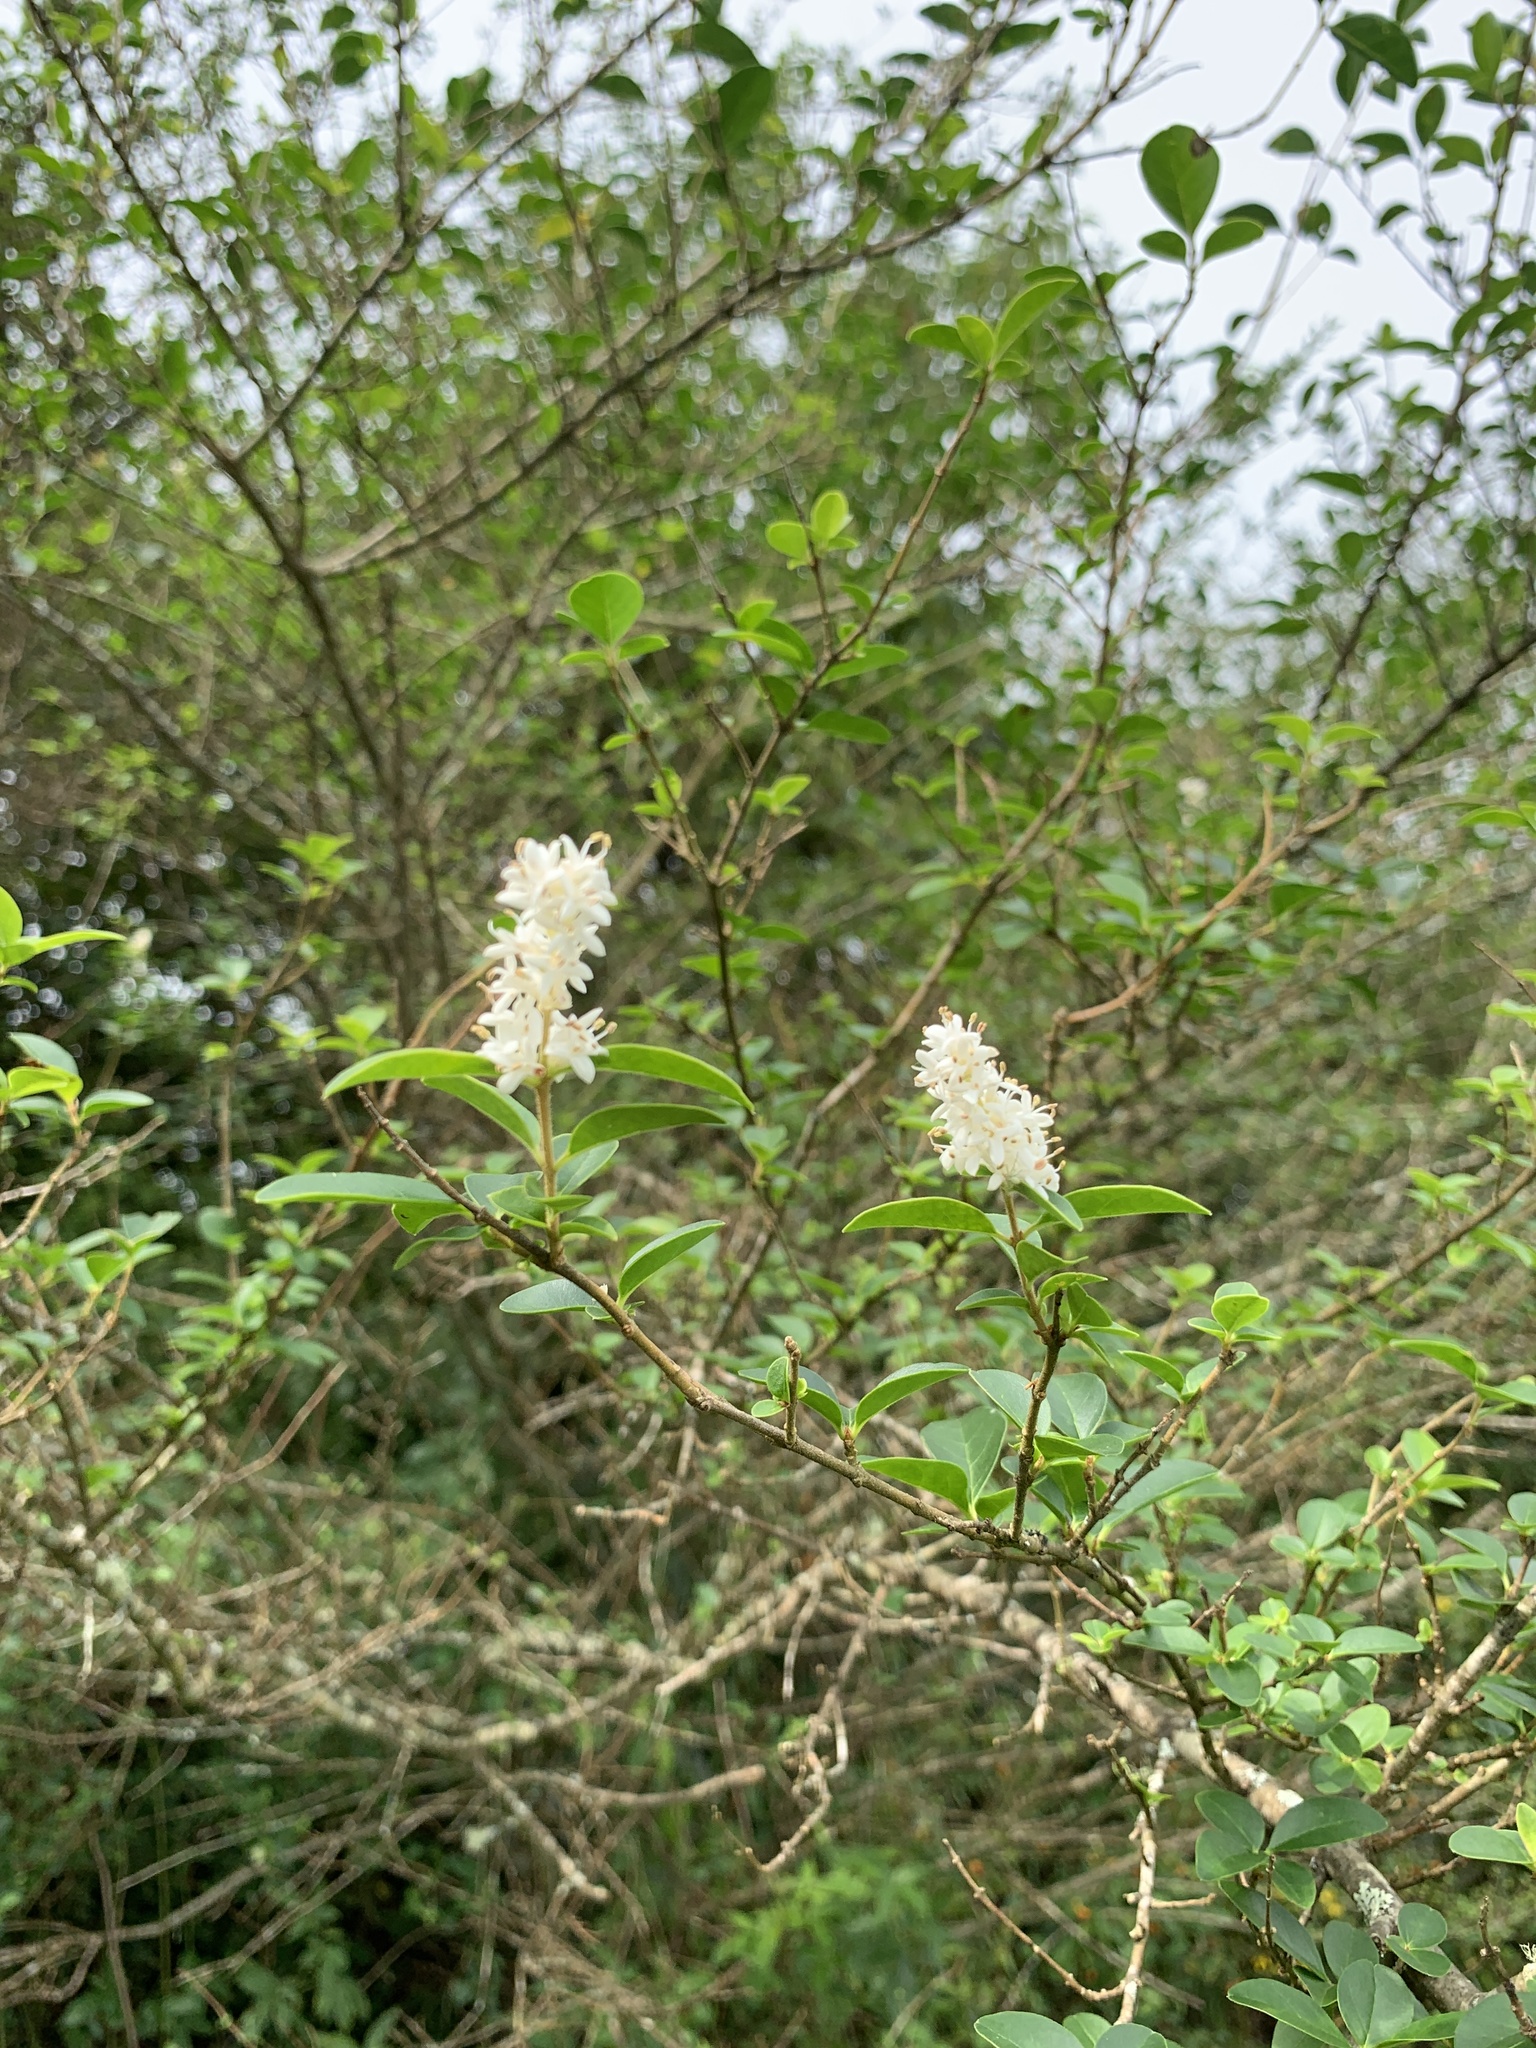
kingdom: Plantae
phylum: Tracheophyta
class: Magnoliopsida
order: Lamiales
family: Oleaceae
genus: Ligustrum
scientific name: Ligustrum sinense
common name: Chinese privet
